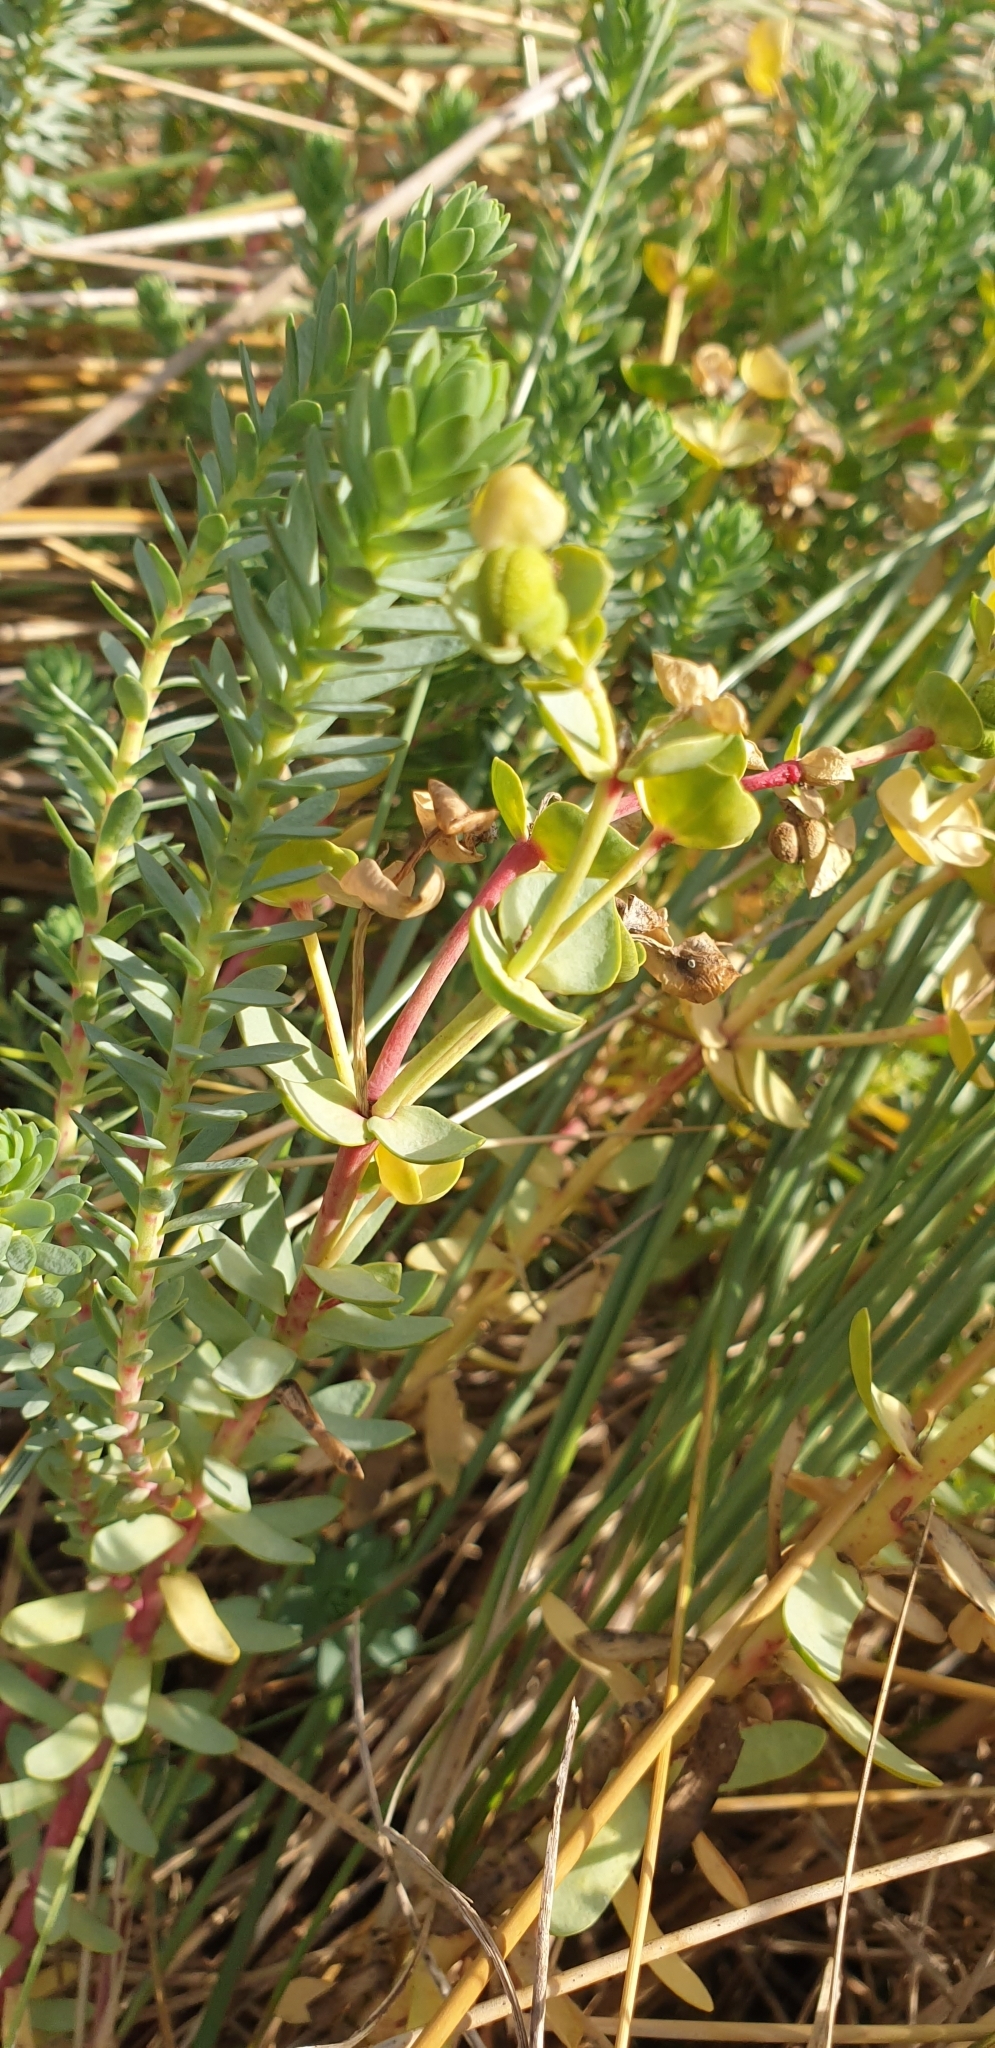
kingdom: Plantae
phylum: Tracheophyta
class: Magnoliopsida
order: Malpighiales
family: Euphorbiaceae
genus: Euphorbia
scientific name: Euphorbia paralias
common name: Sea spurge
